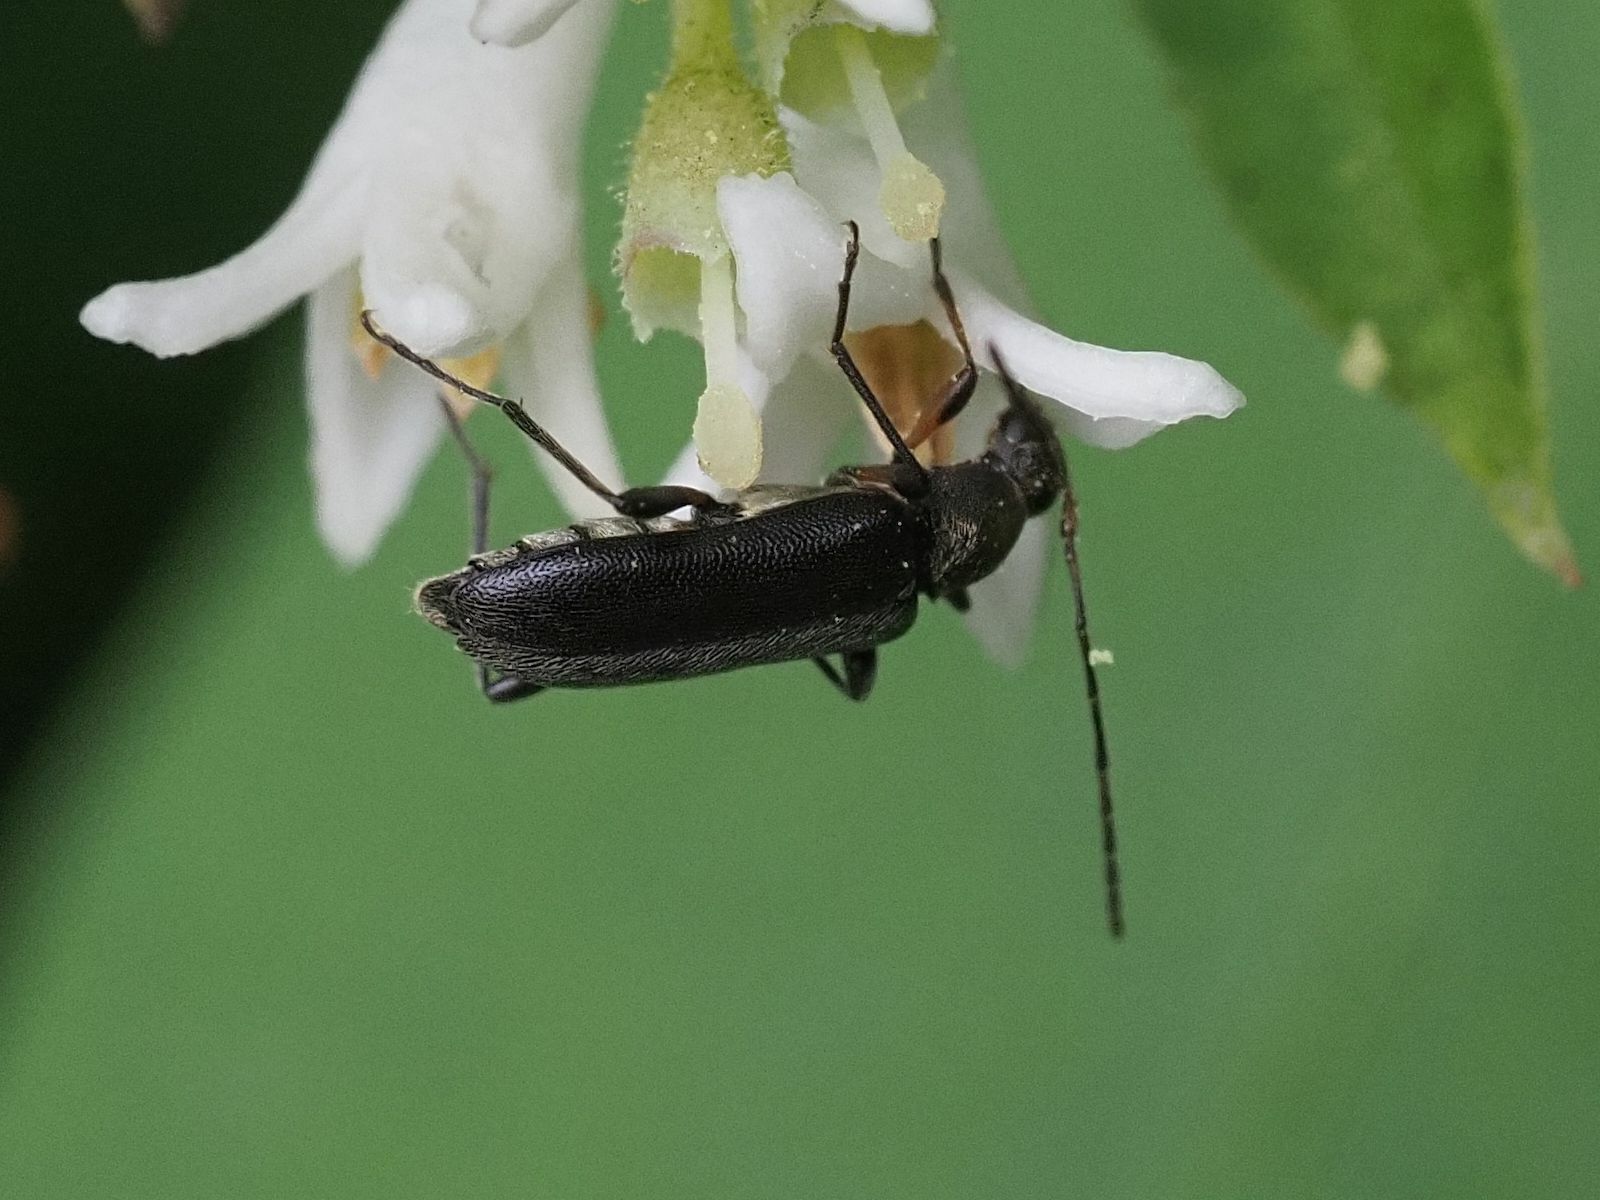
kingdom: Animalia
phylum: Arthropoda
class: Insecta
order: Coleoptera
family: Cerambycidae
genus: Grammoptera
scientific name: Grammoptera ruficornis
